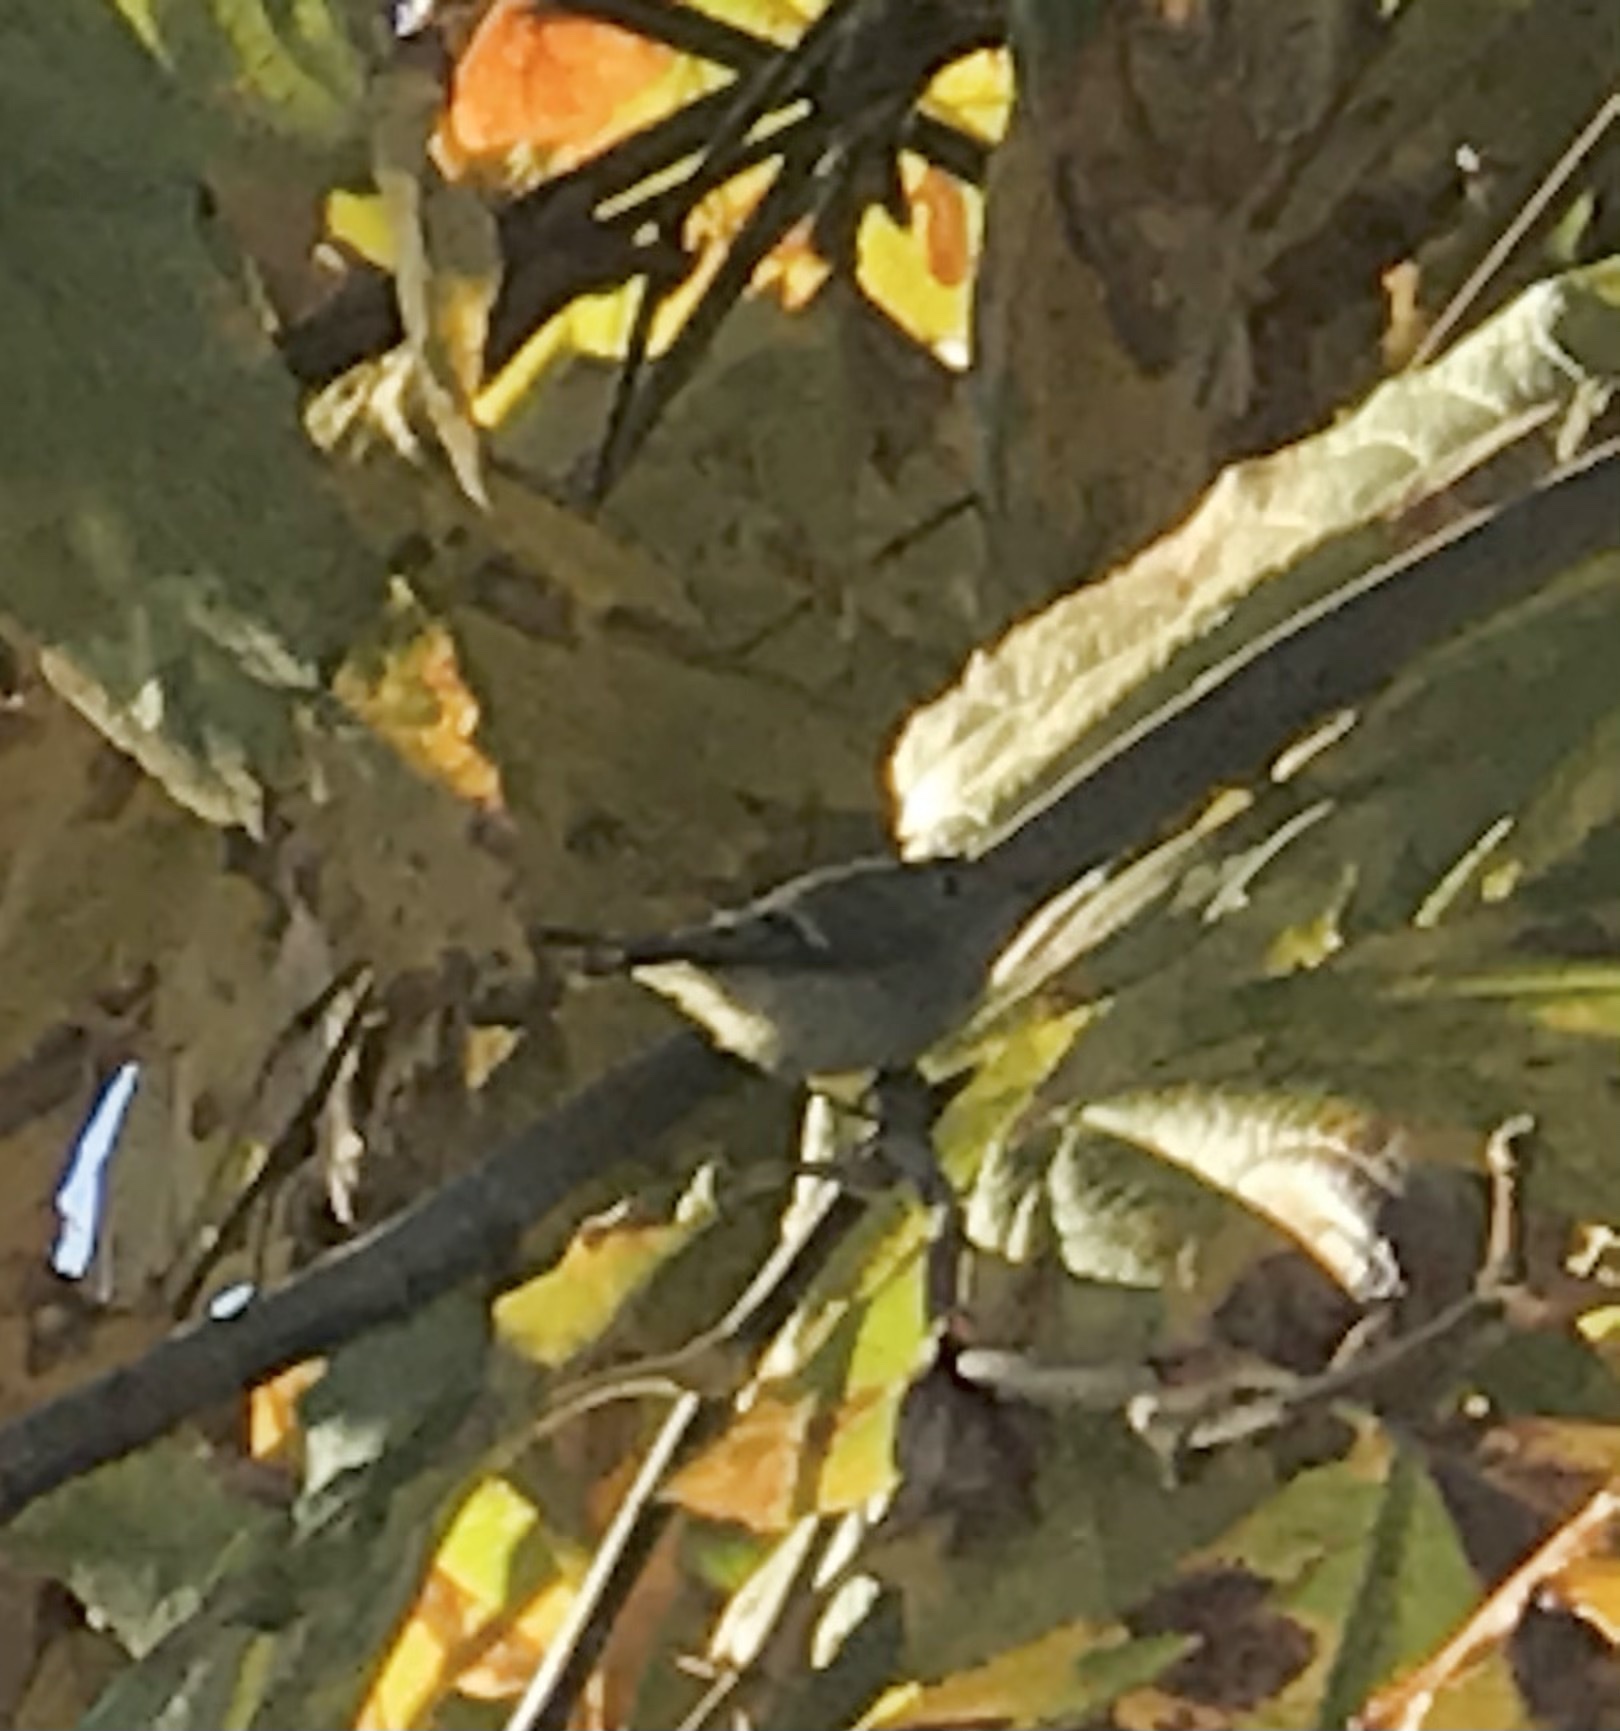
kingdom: Animalia
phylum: Chordata
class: Aves
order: Passeriformes
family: Regulidae
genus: Regulus
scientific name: Regulus calendula
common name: Ruby-crowned kinglet
